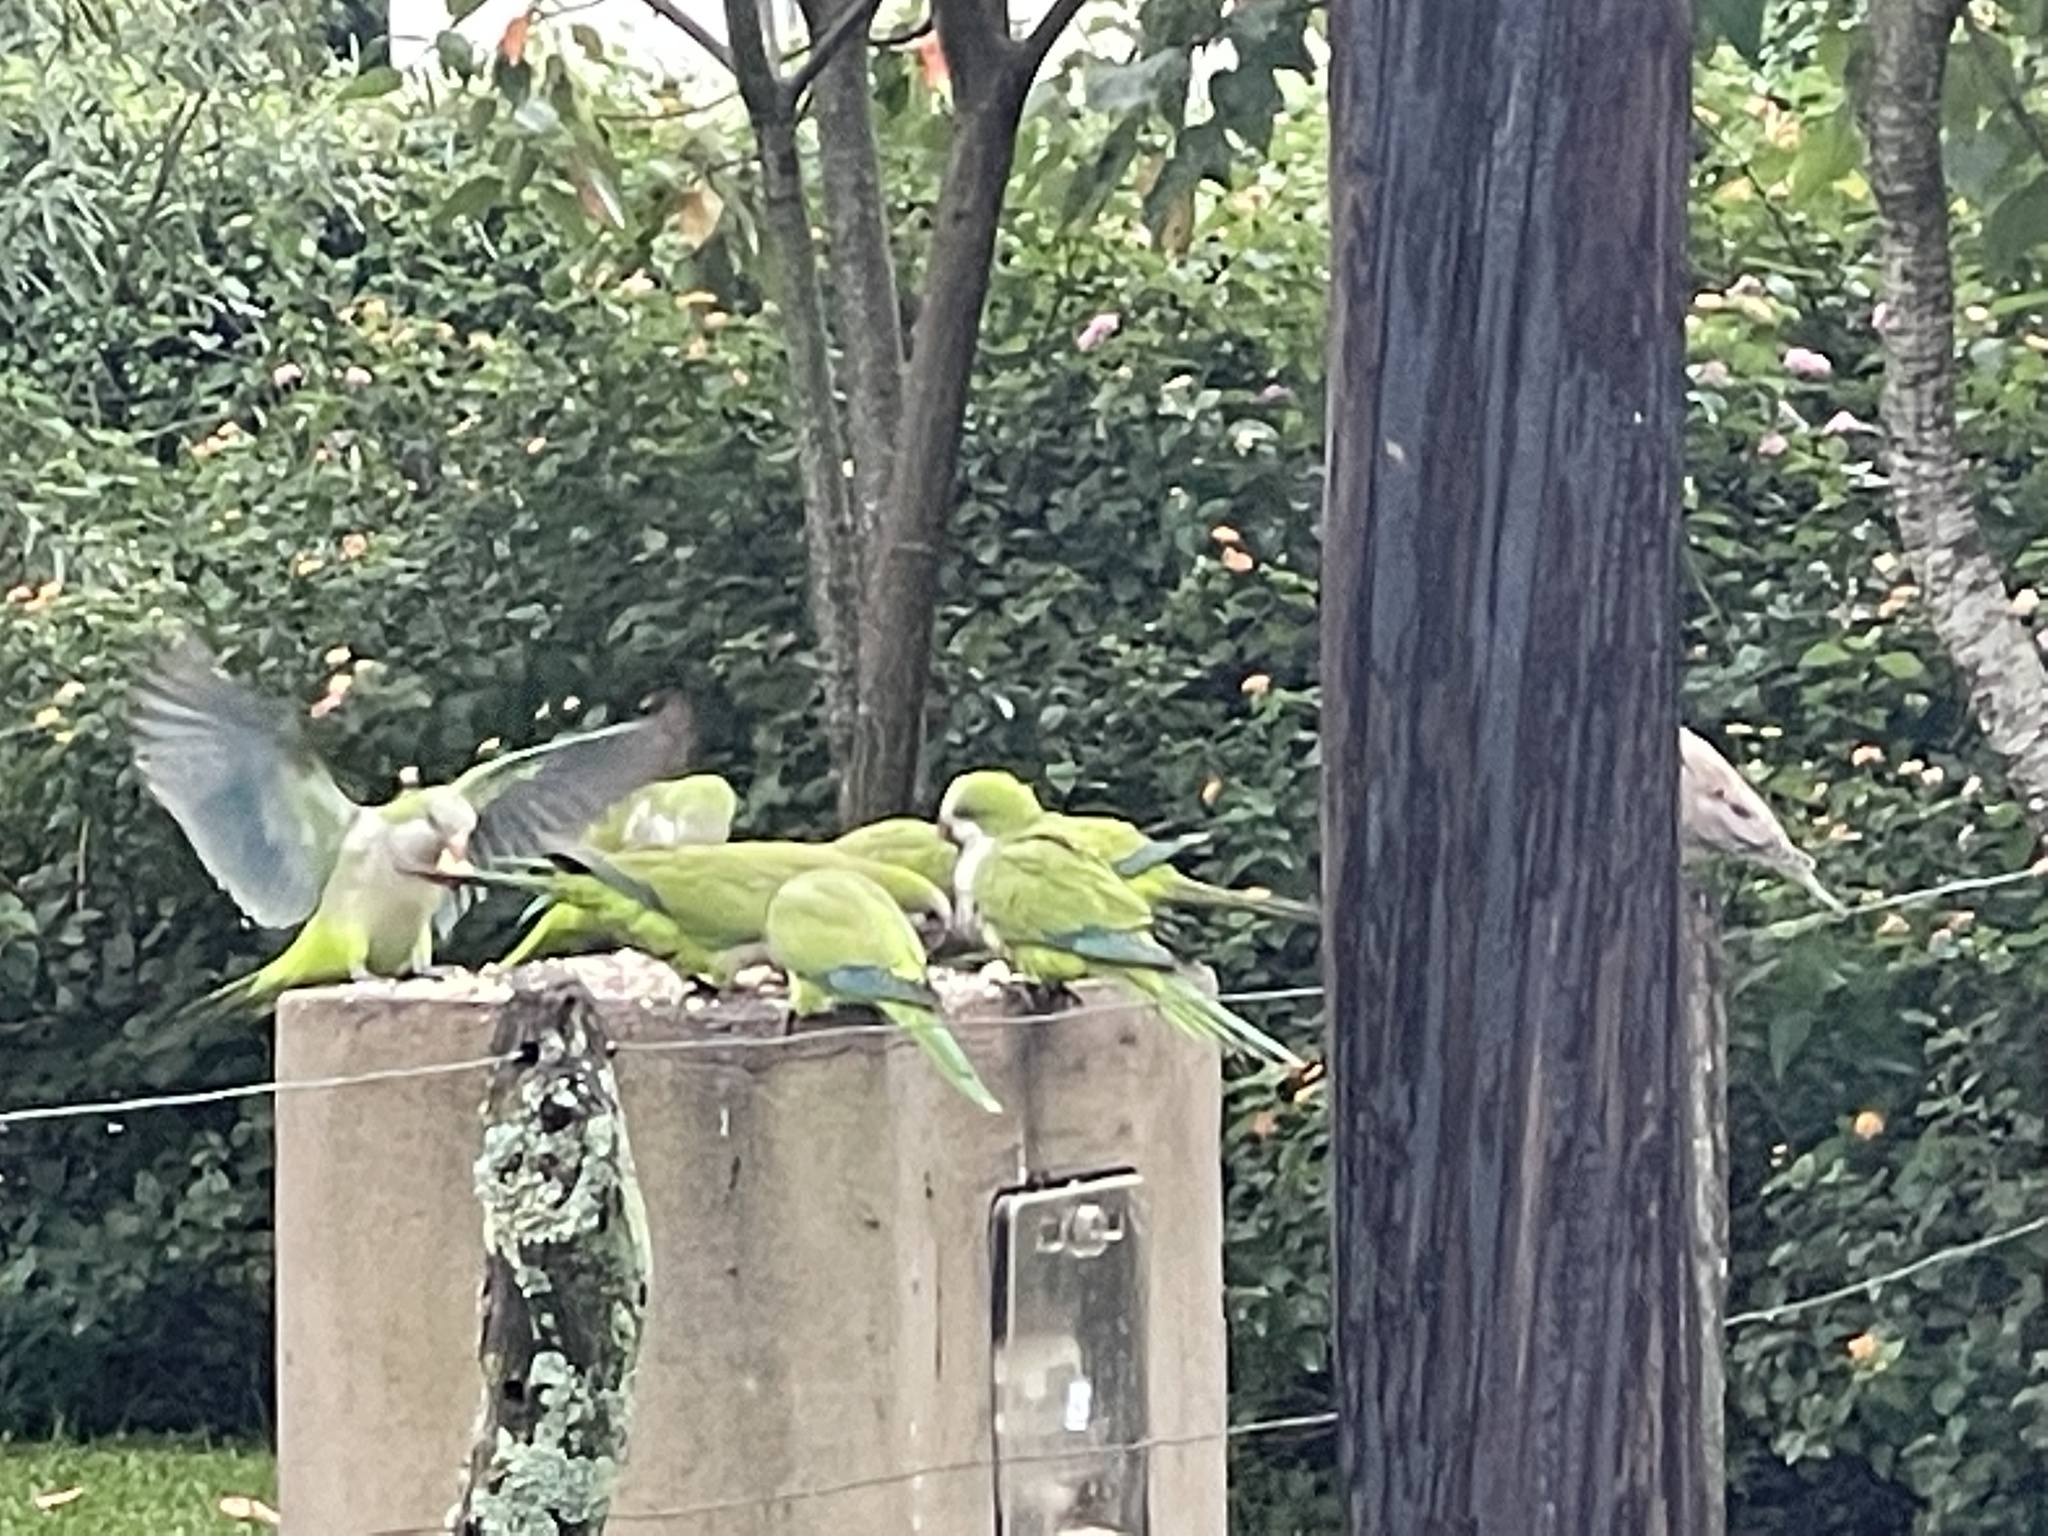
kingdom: Animalia
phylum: Chordata
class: Aves
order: Psittaciformes
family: Psittacidae
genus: Myiopsitta
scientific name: Myiopsitta monachus
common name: Monk parakeet
